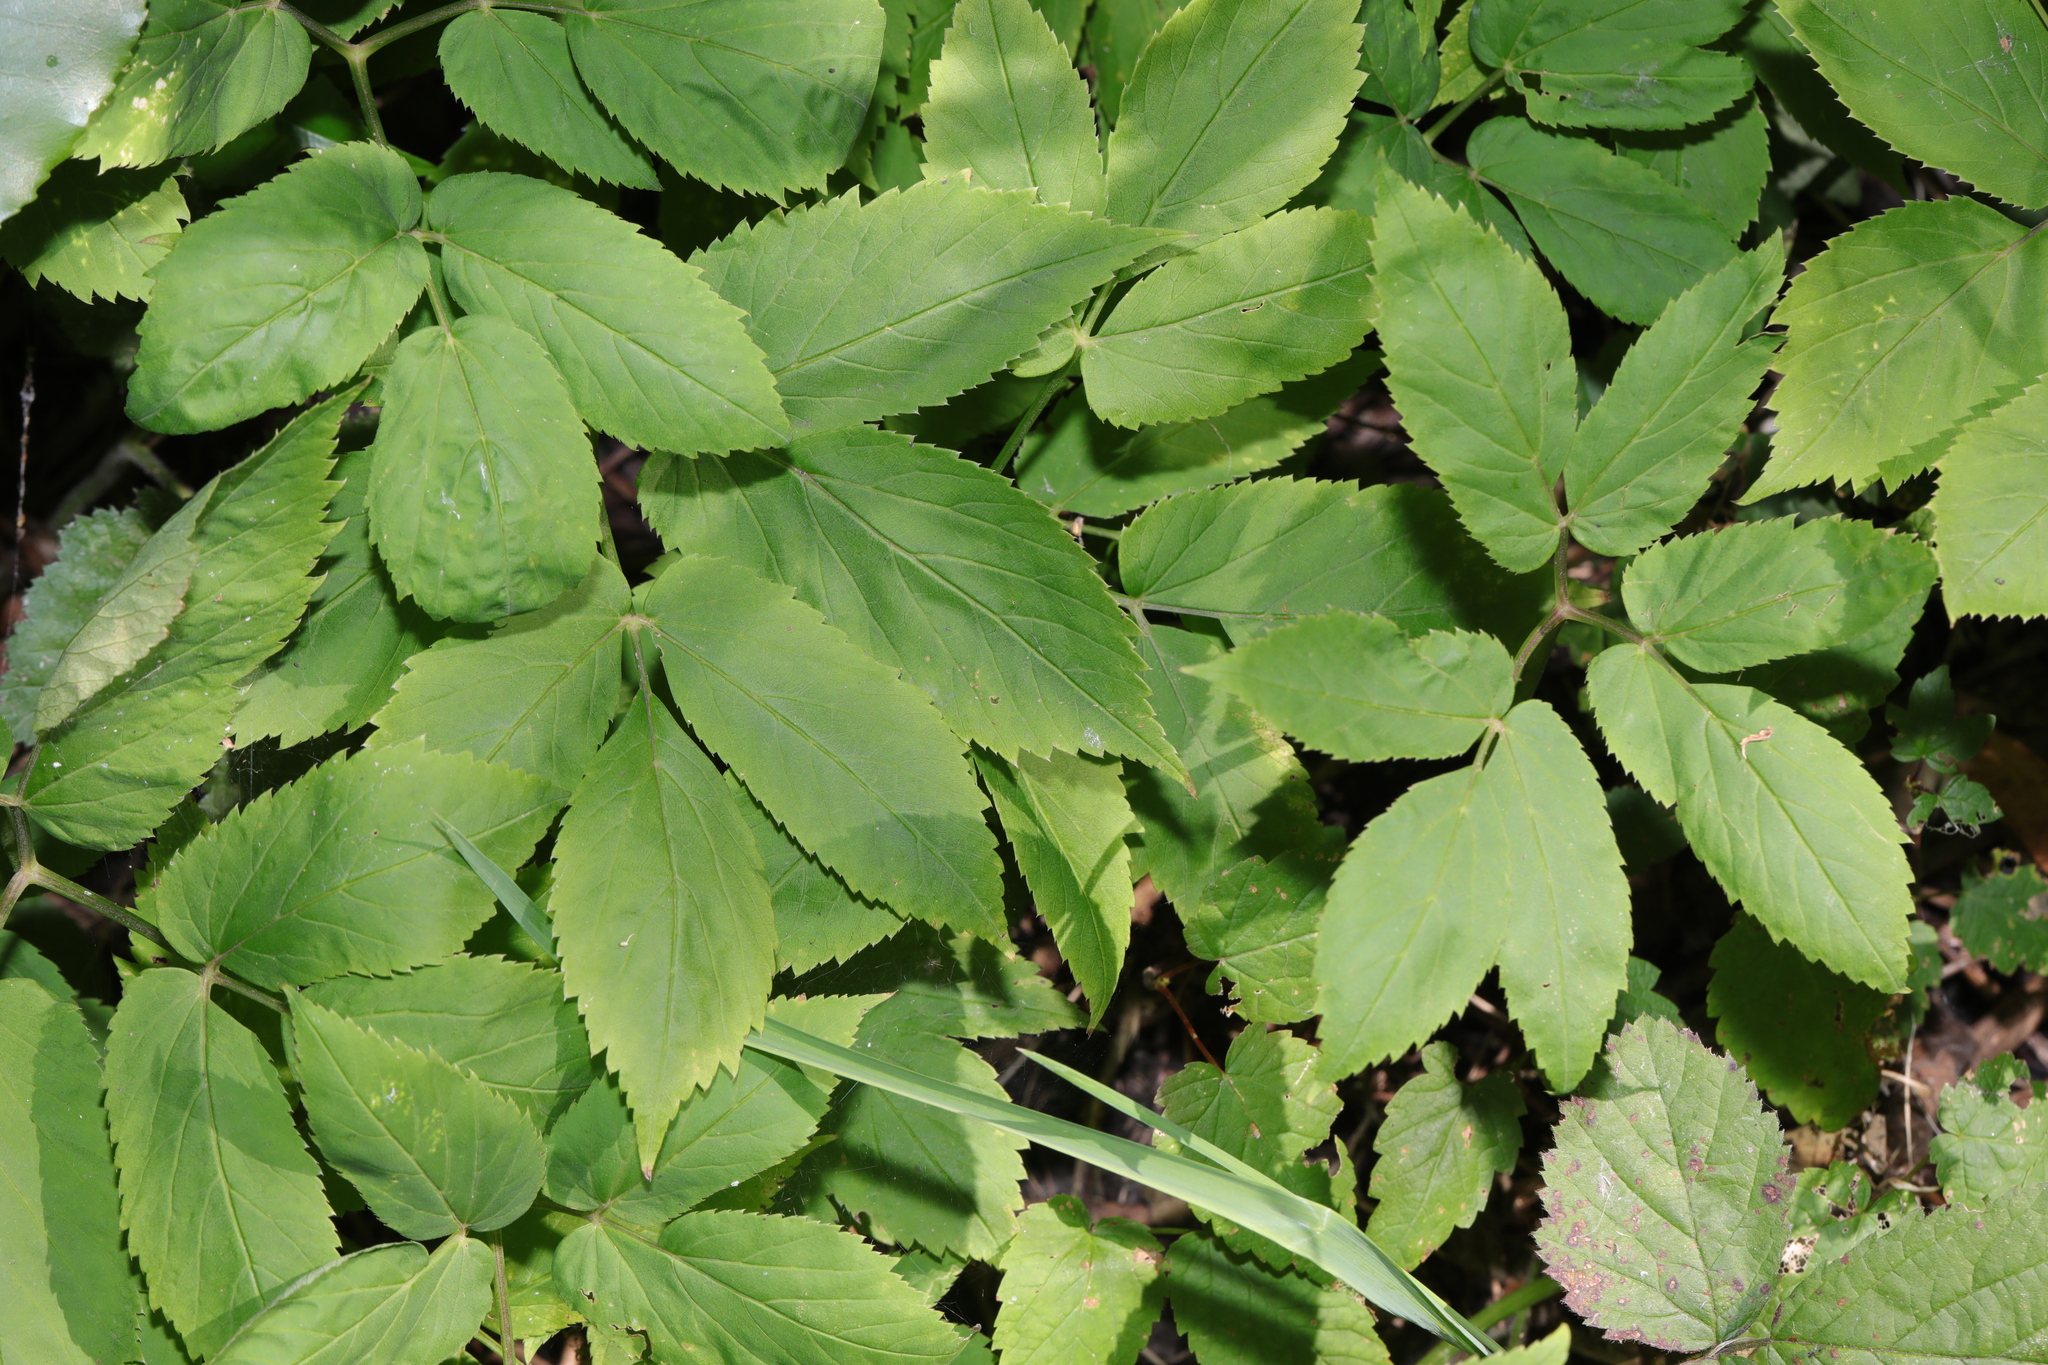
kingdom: Plantae
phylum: Tracheophyta
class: Magnoliopsida
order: Apiales
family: Apiaceae
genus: Aegopodium
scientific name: Aegopodium podagraria
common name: Ground-elder
